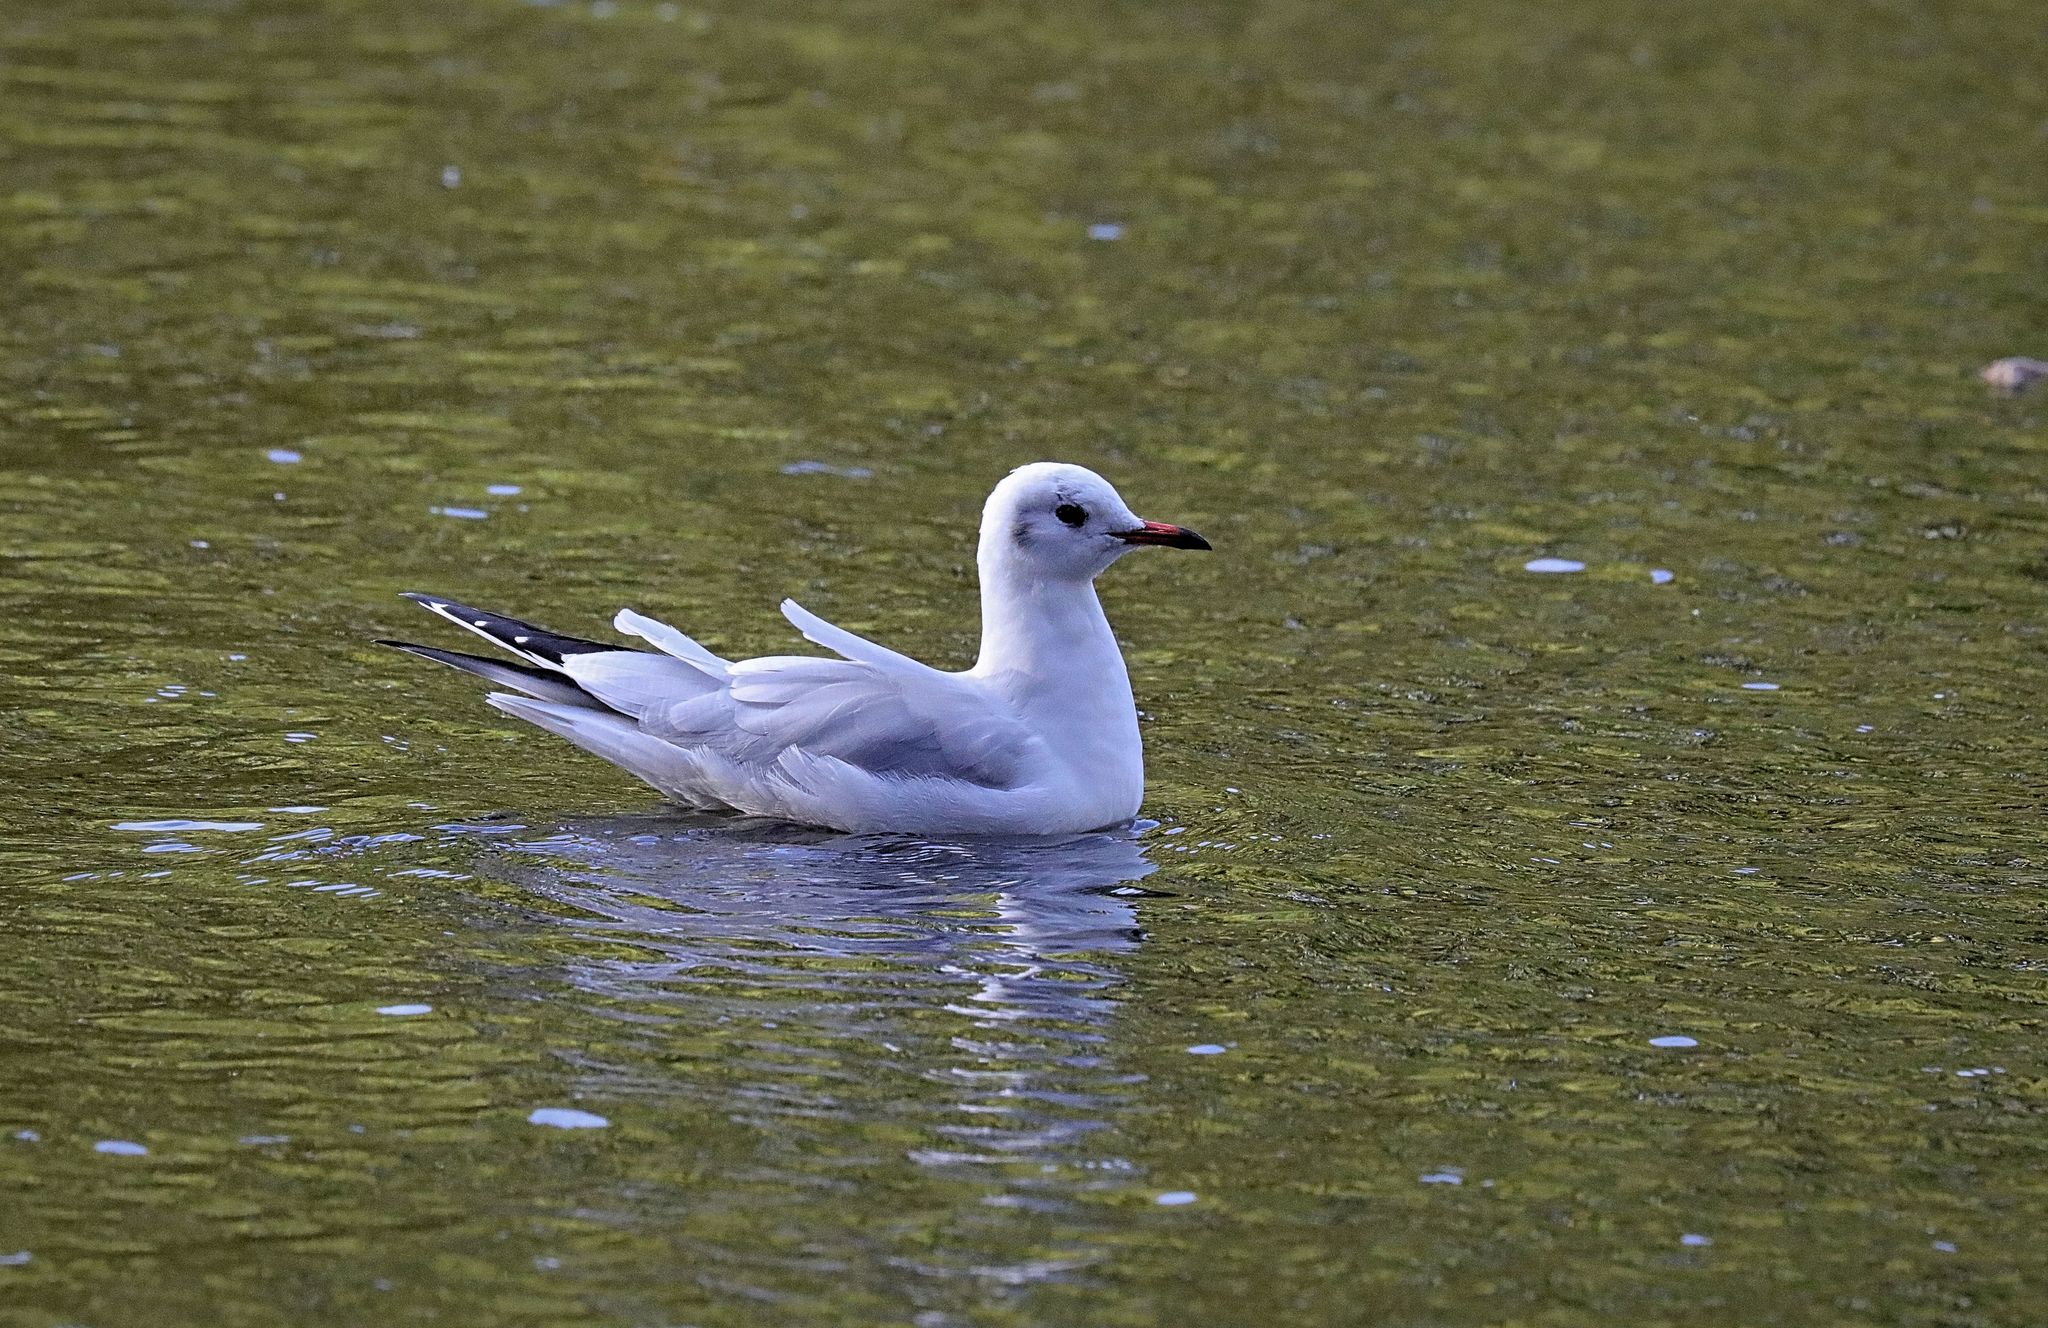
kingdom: Animalia
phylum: Chordata
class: Aves
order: Charadriiformes
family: Laridae
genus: Chroicocephalus
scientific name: Chroicocephalus ridibundus
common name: Black-headed gull
